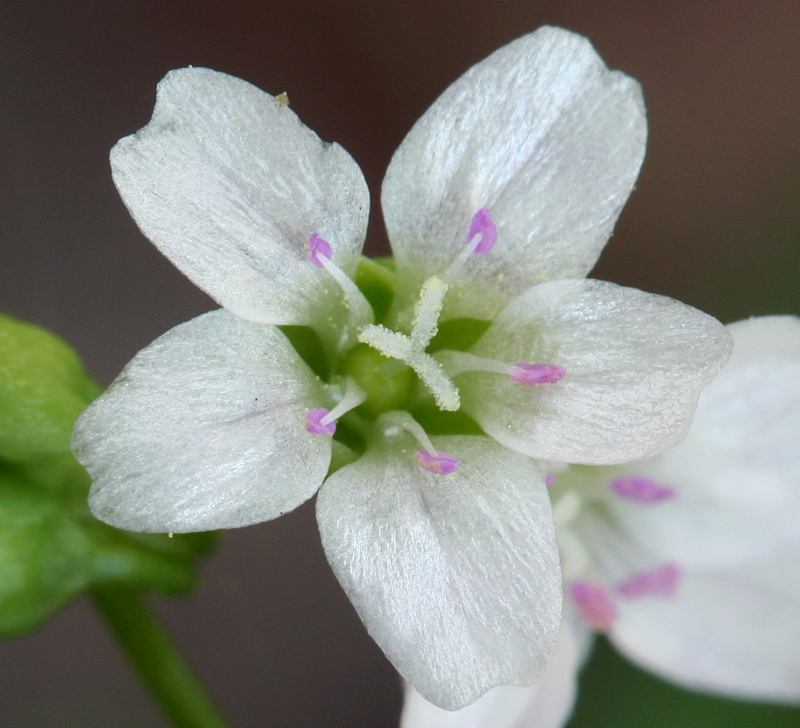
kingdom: Plantae
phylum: Tracheophyta
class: Magnoliopsida
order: Caryophyllales
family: Montiaceae
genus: Claytonia
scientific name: Claytonia perfoliata
